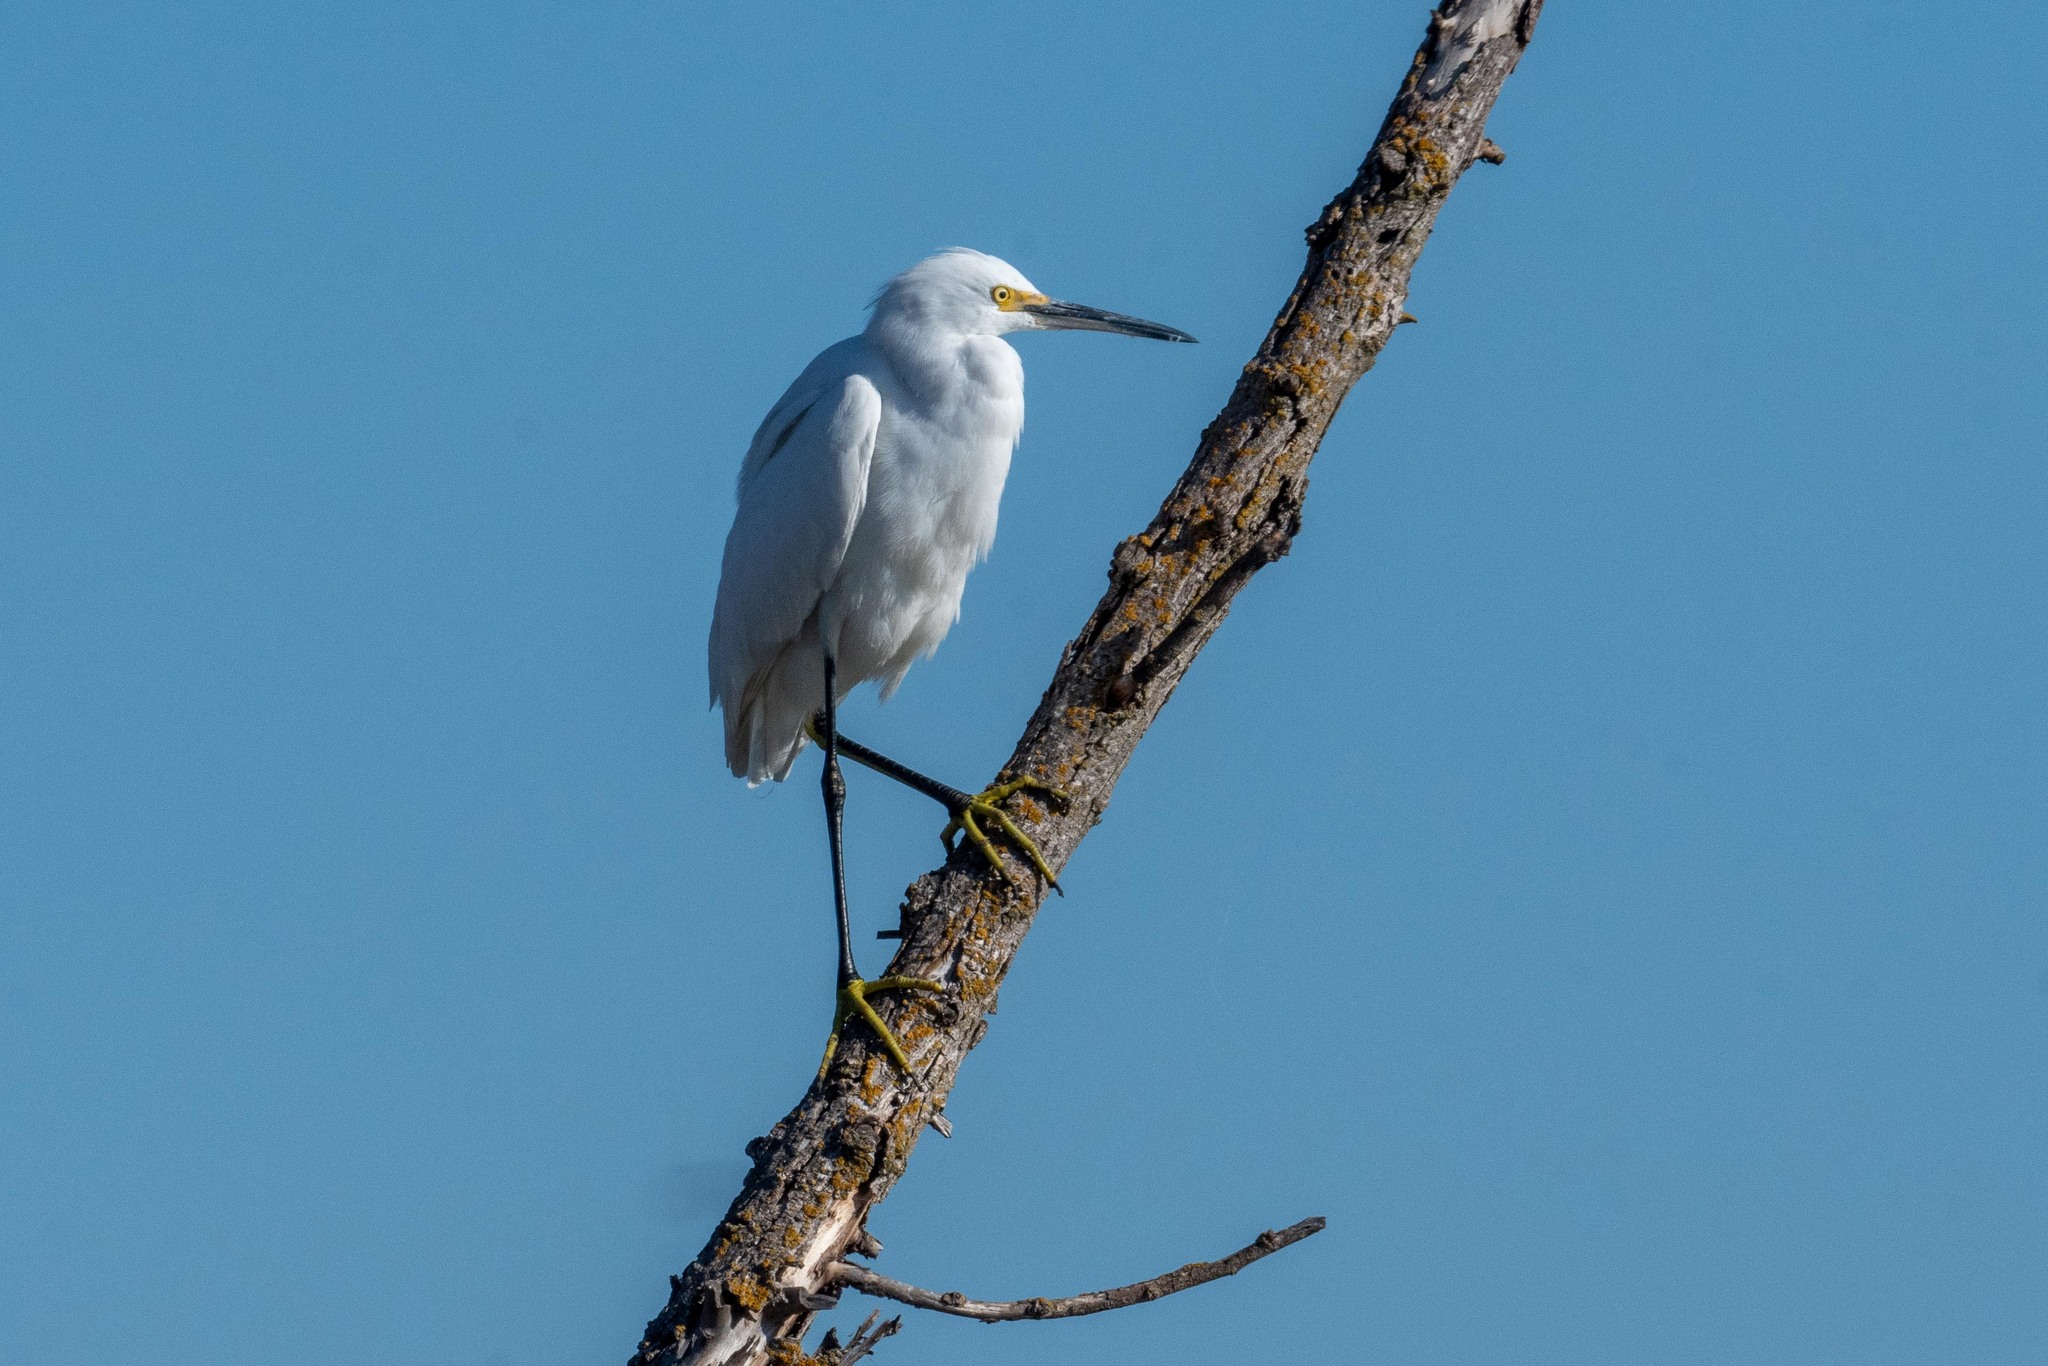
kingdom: Animalia
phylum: Chordata
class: Aves
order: Pelecaniformes
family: Ardeidae
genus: Egretta
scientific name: Egretta thula
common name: Snowy egret
